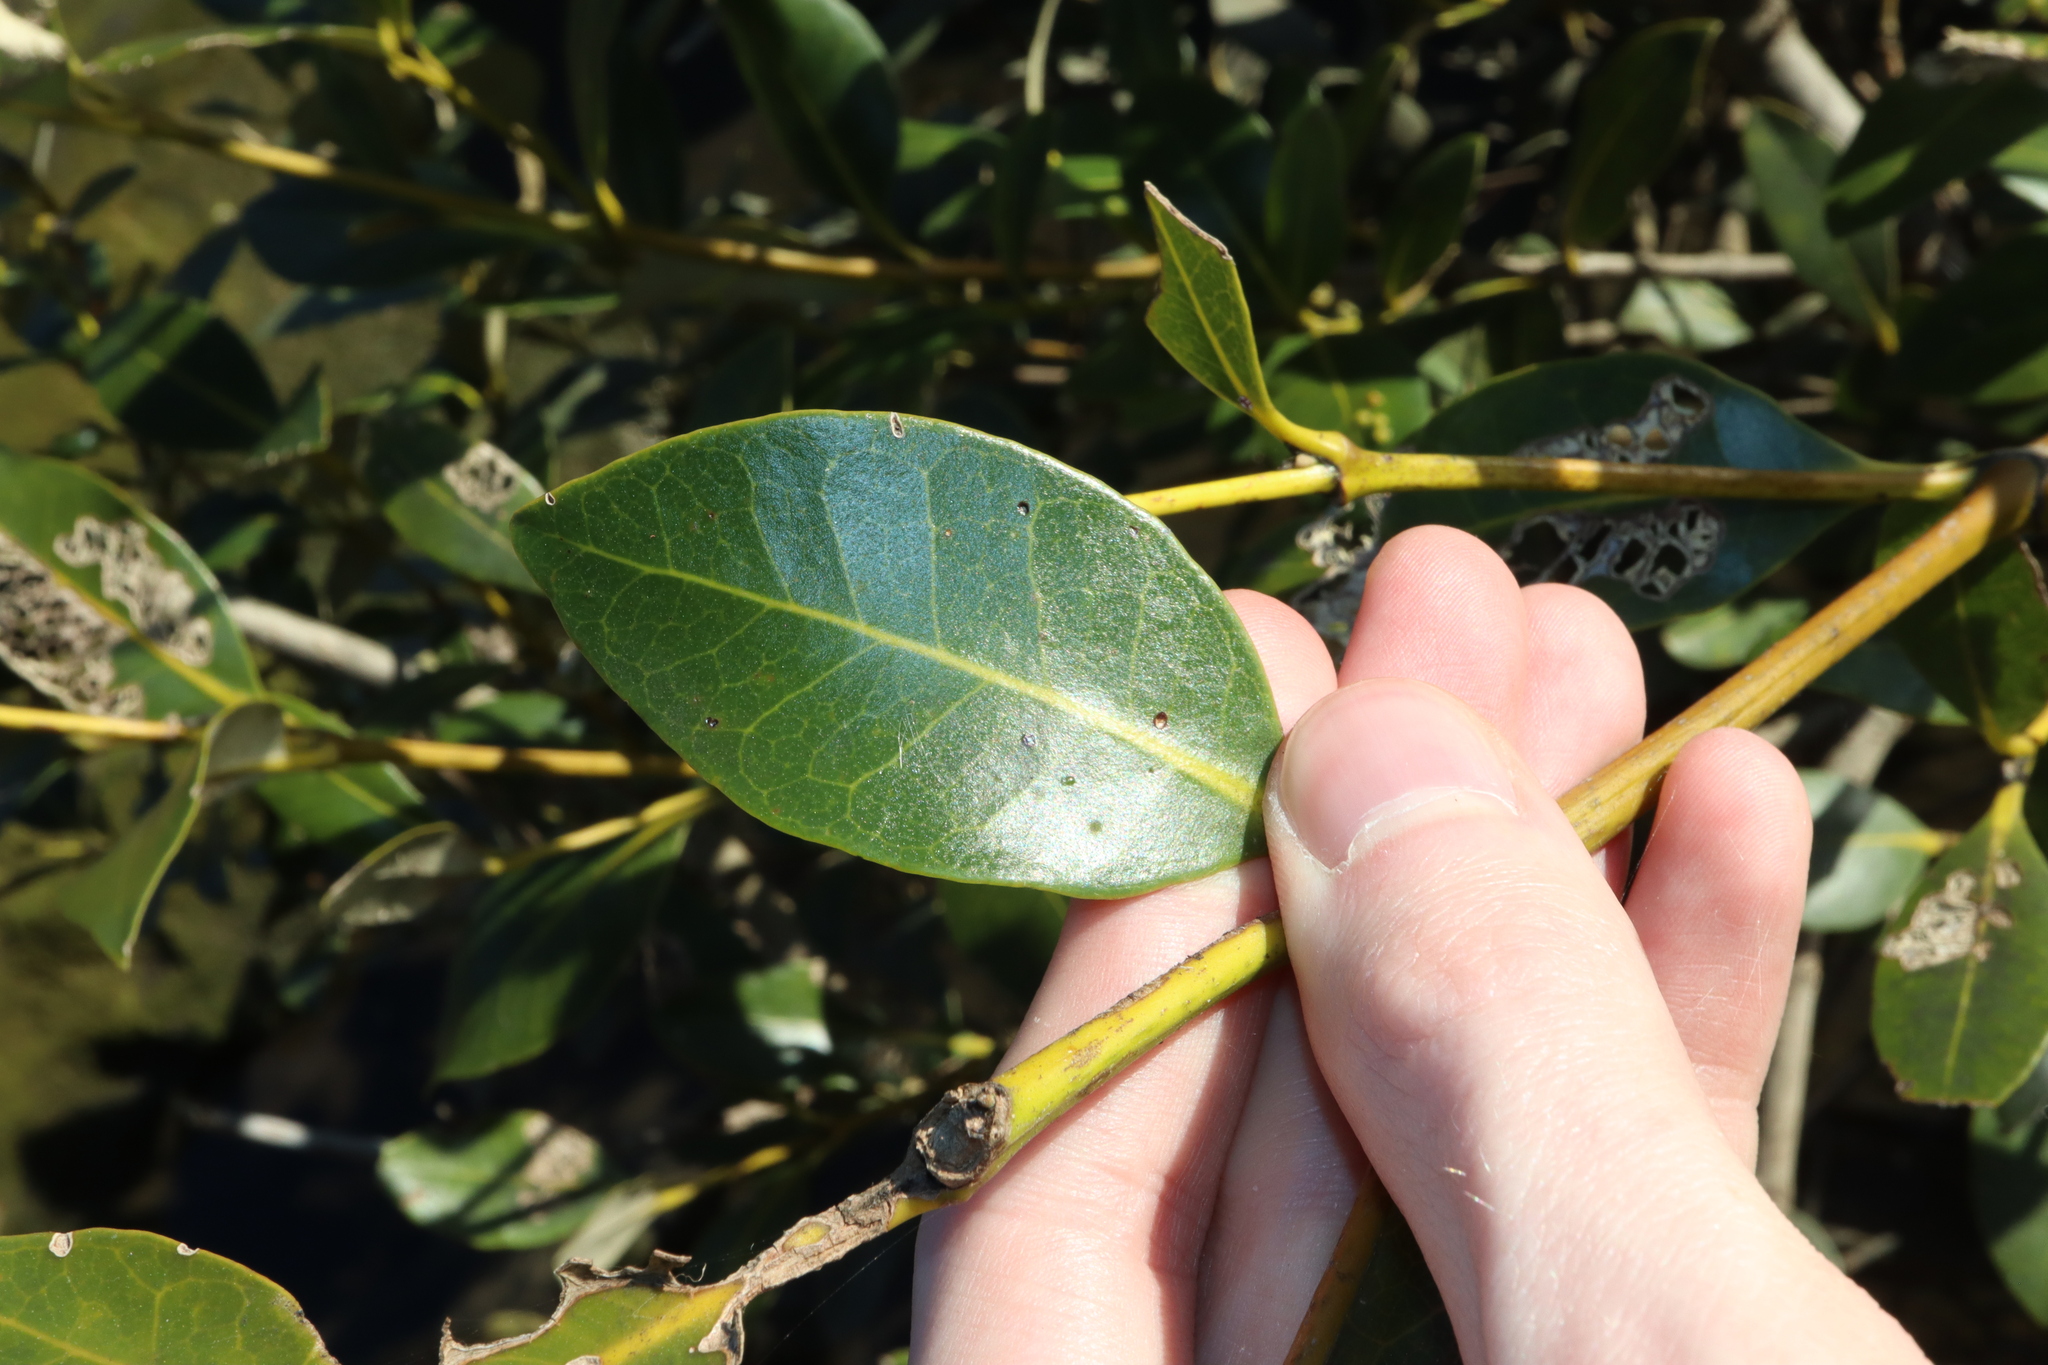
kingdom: Plantae
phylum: Tracheophyta
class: Magnoliopsida
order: Lamiales
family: Acanthaceae
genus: Avicennia
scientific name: Avicennia marina
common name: Gray mangrove
